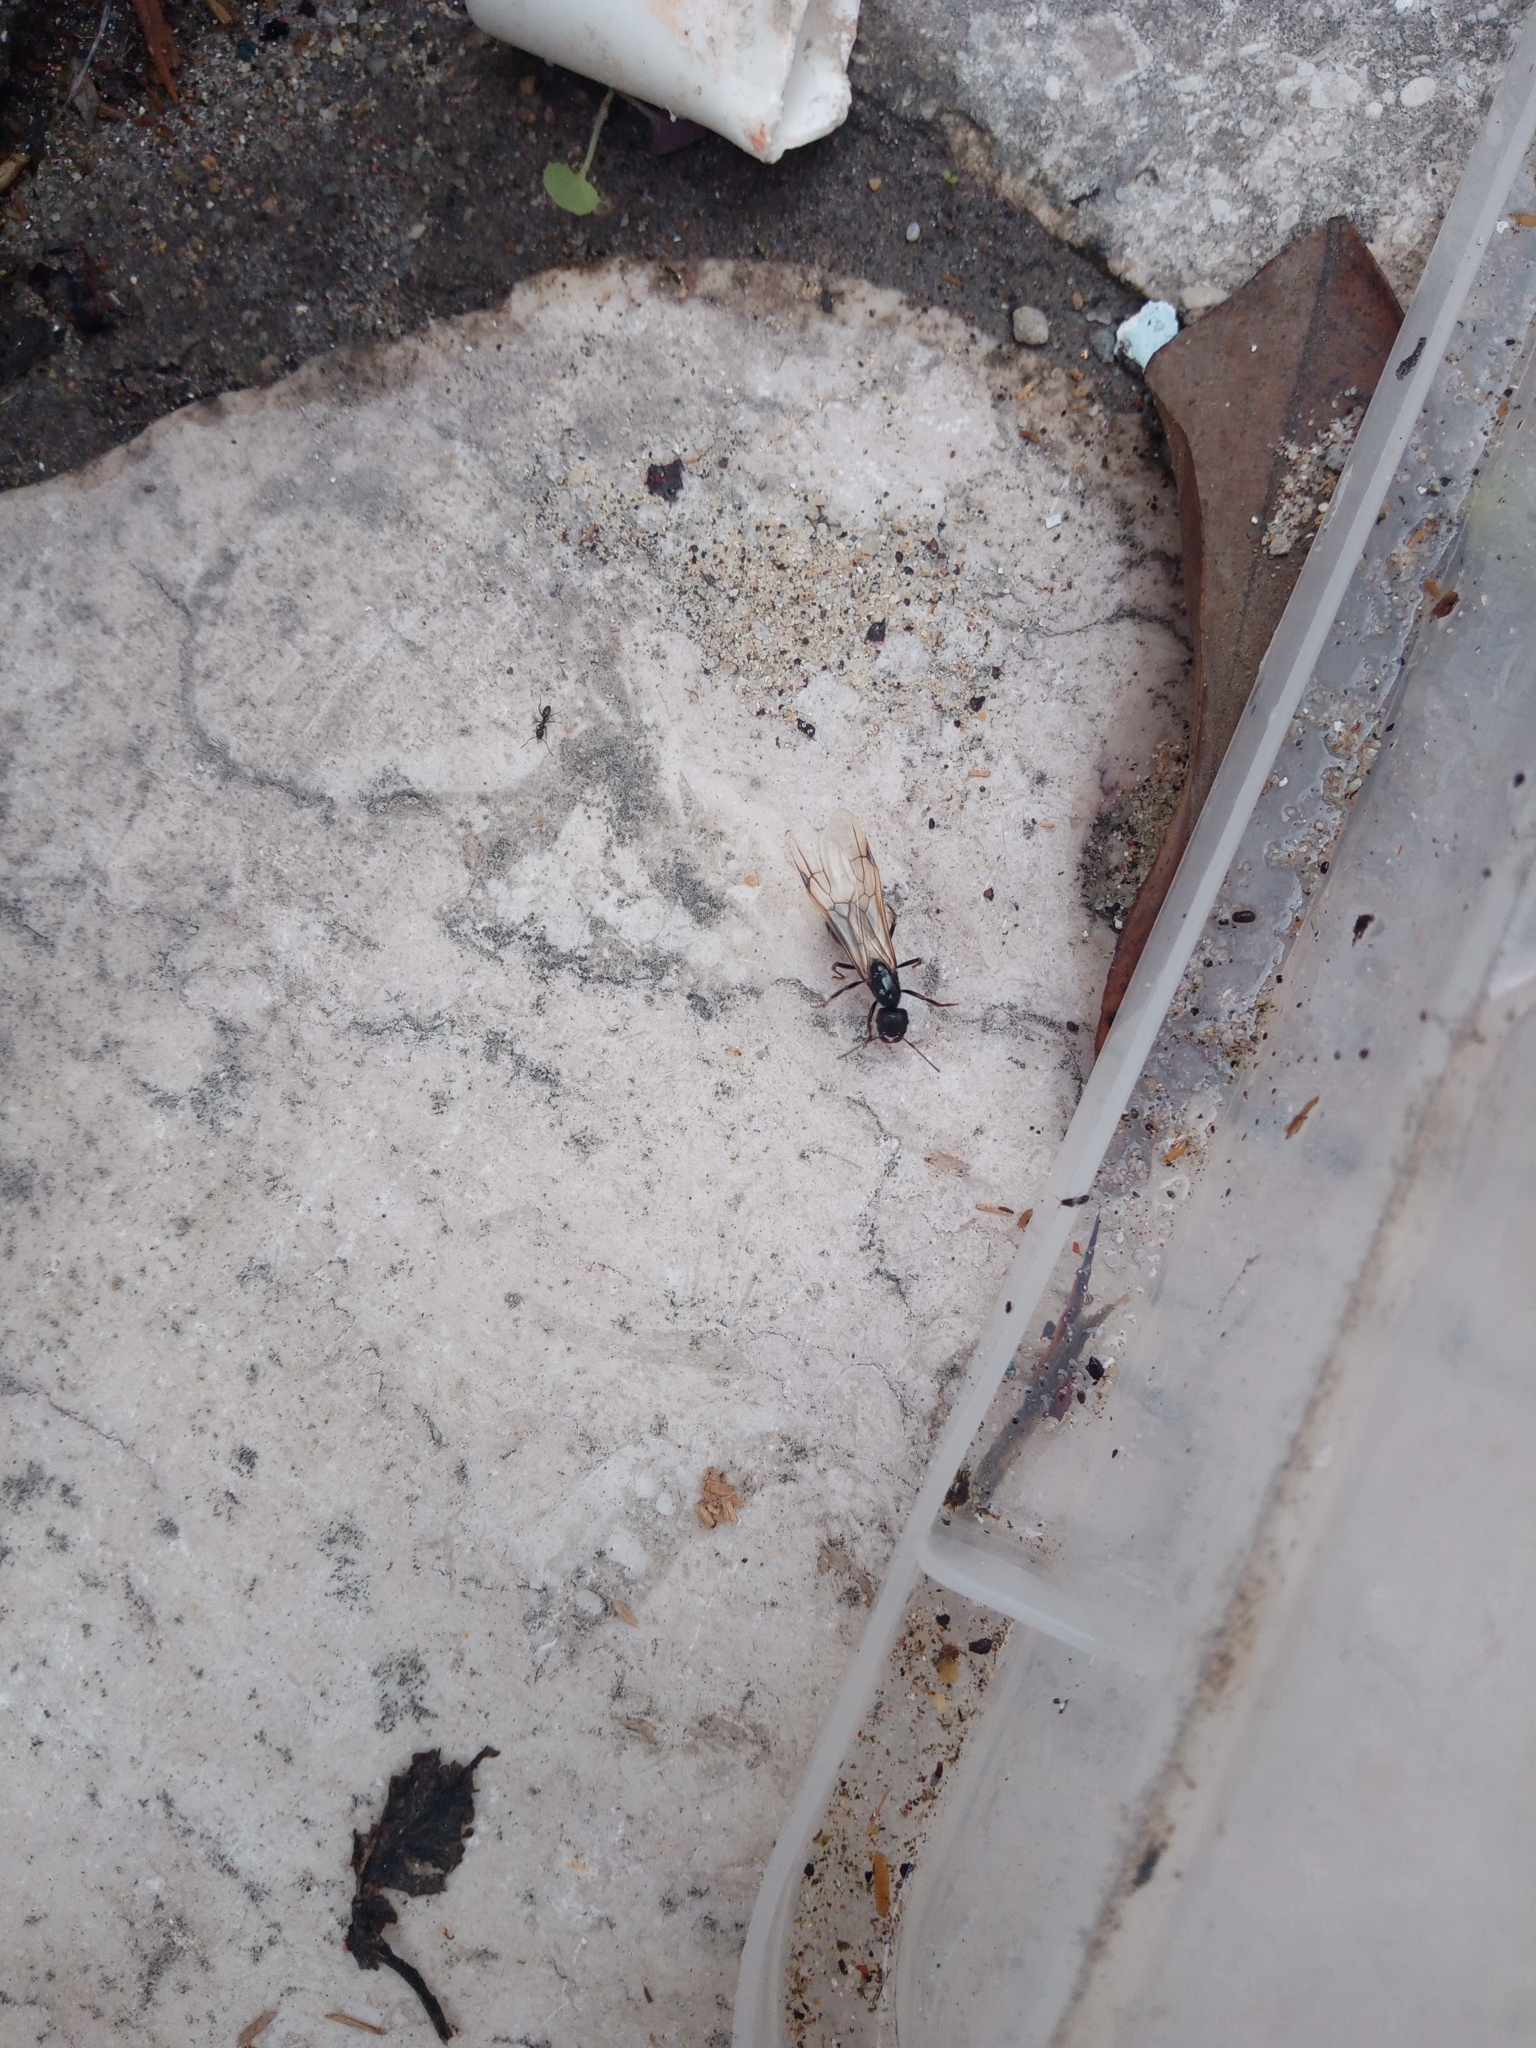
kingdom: Animalia
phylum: Arthropoda
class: Insecta
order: Hymenoptera
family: Formicidae
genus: Messor
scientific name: Messor barbarus
